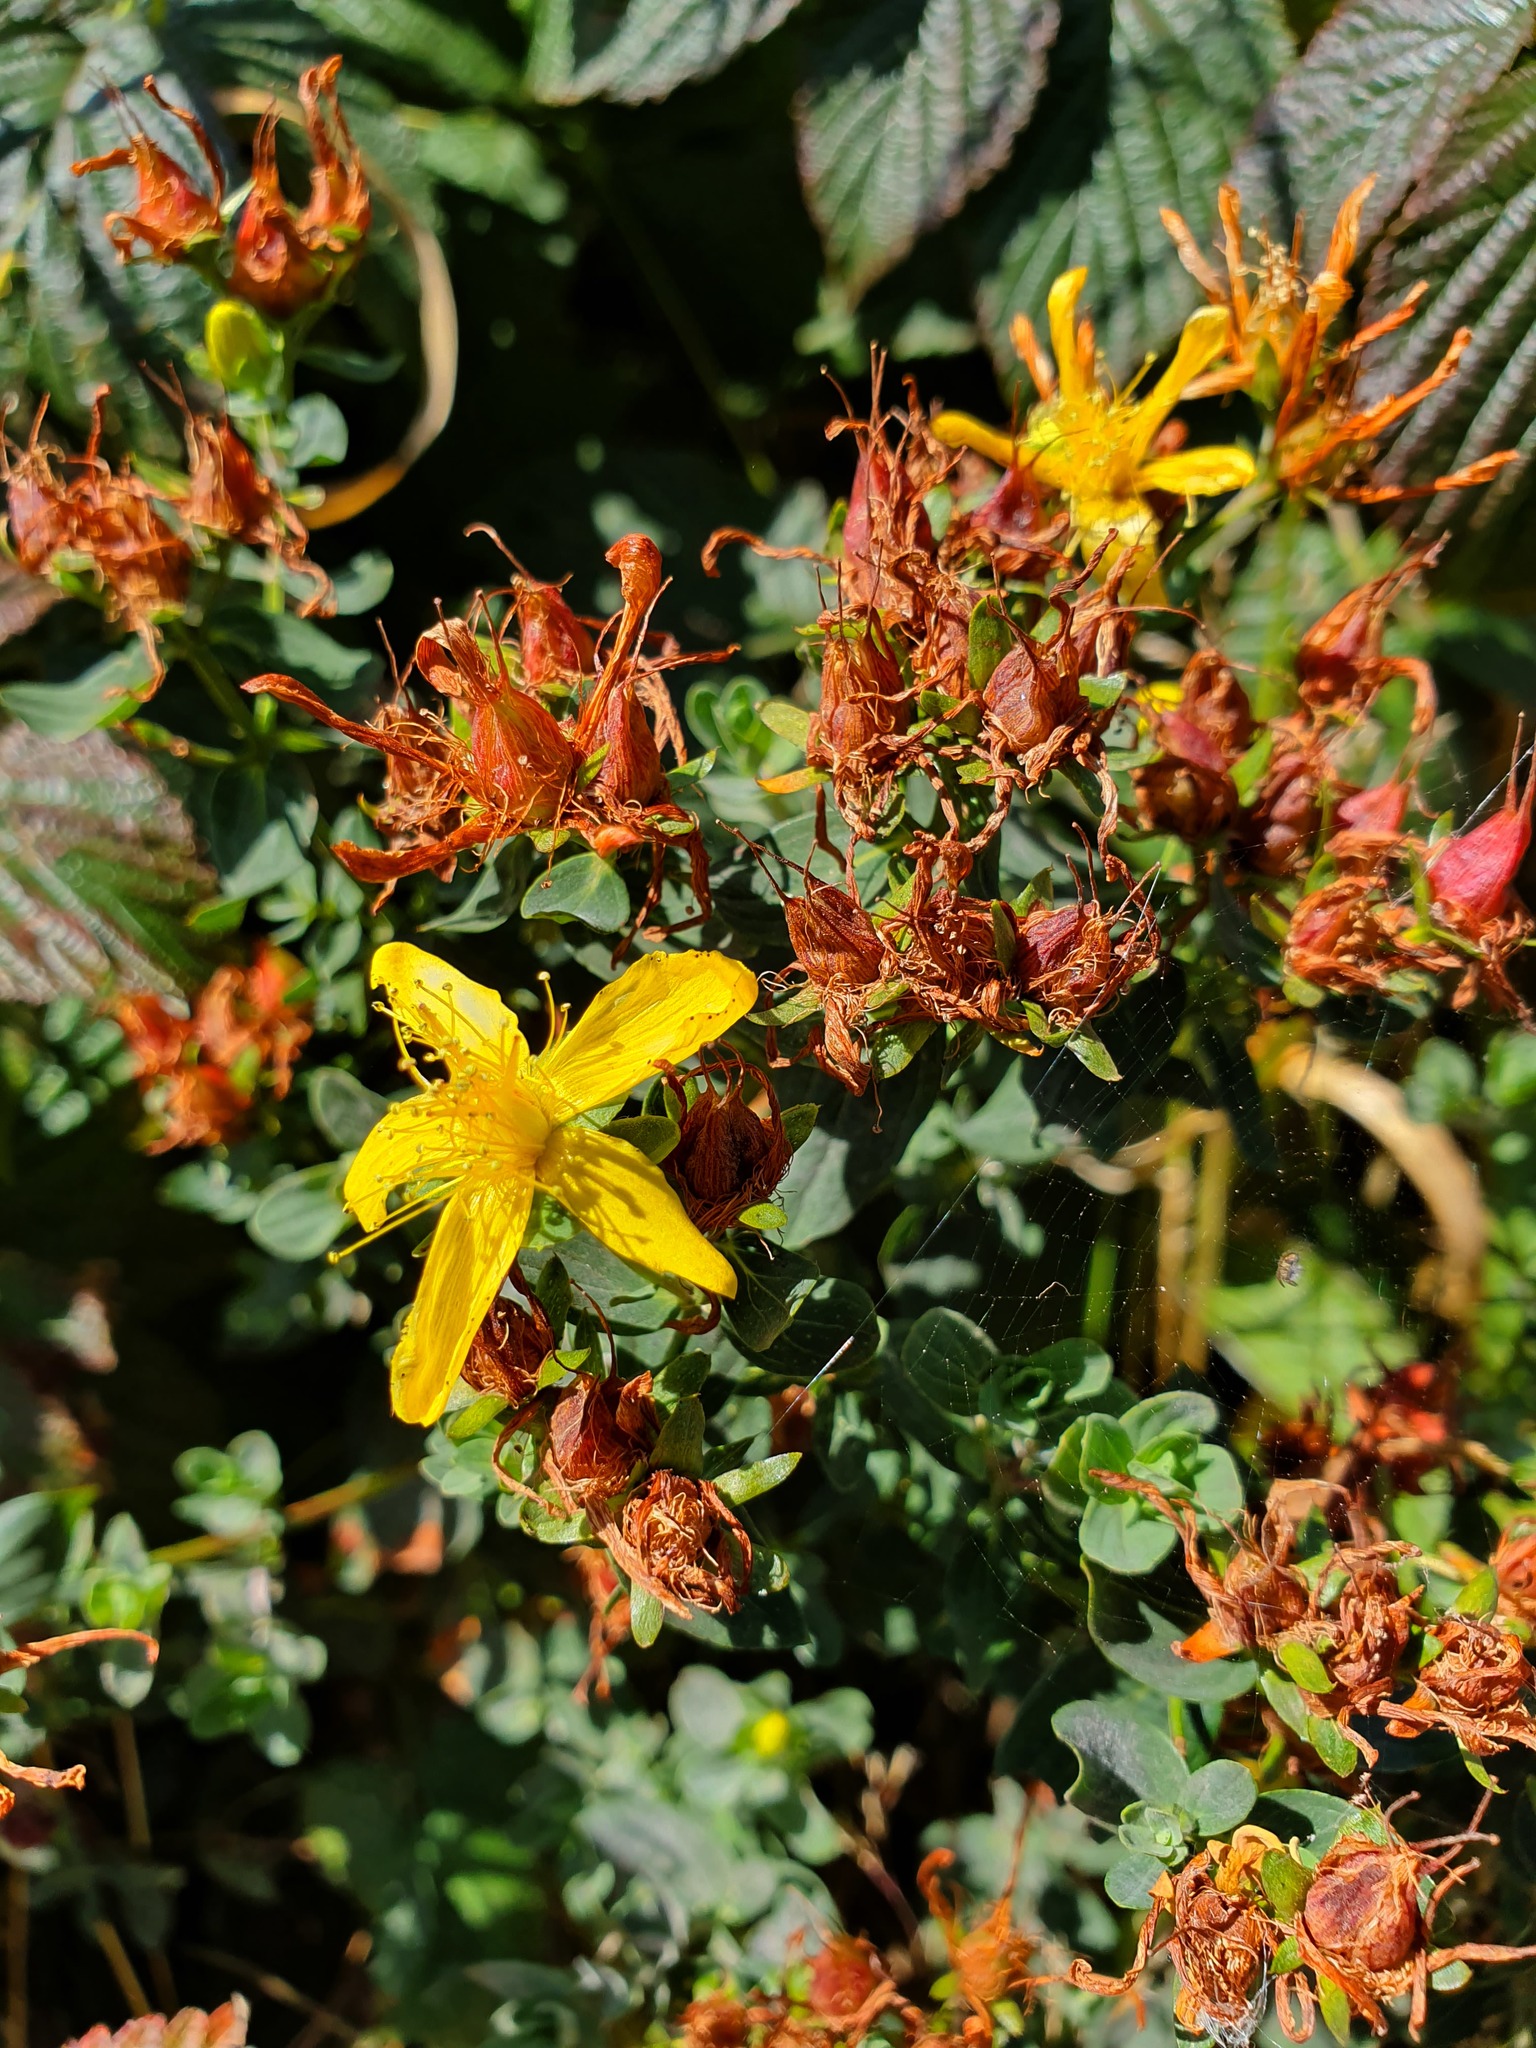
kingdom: Plantae
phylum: Tracheophyta
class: Magnoliopsida
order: Malpighiales
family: Hypericaceae
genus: Hypericum
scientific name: Hypericum perforatum
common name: Common st. johnswort
